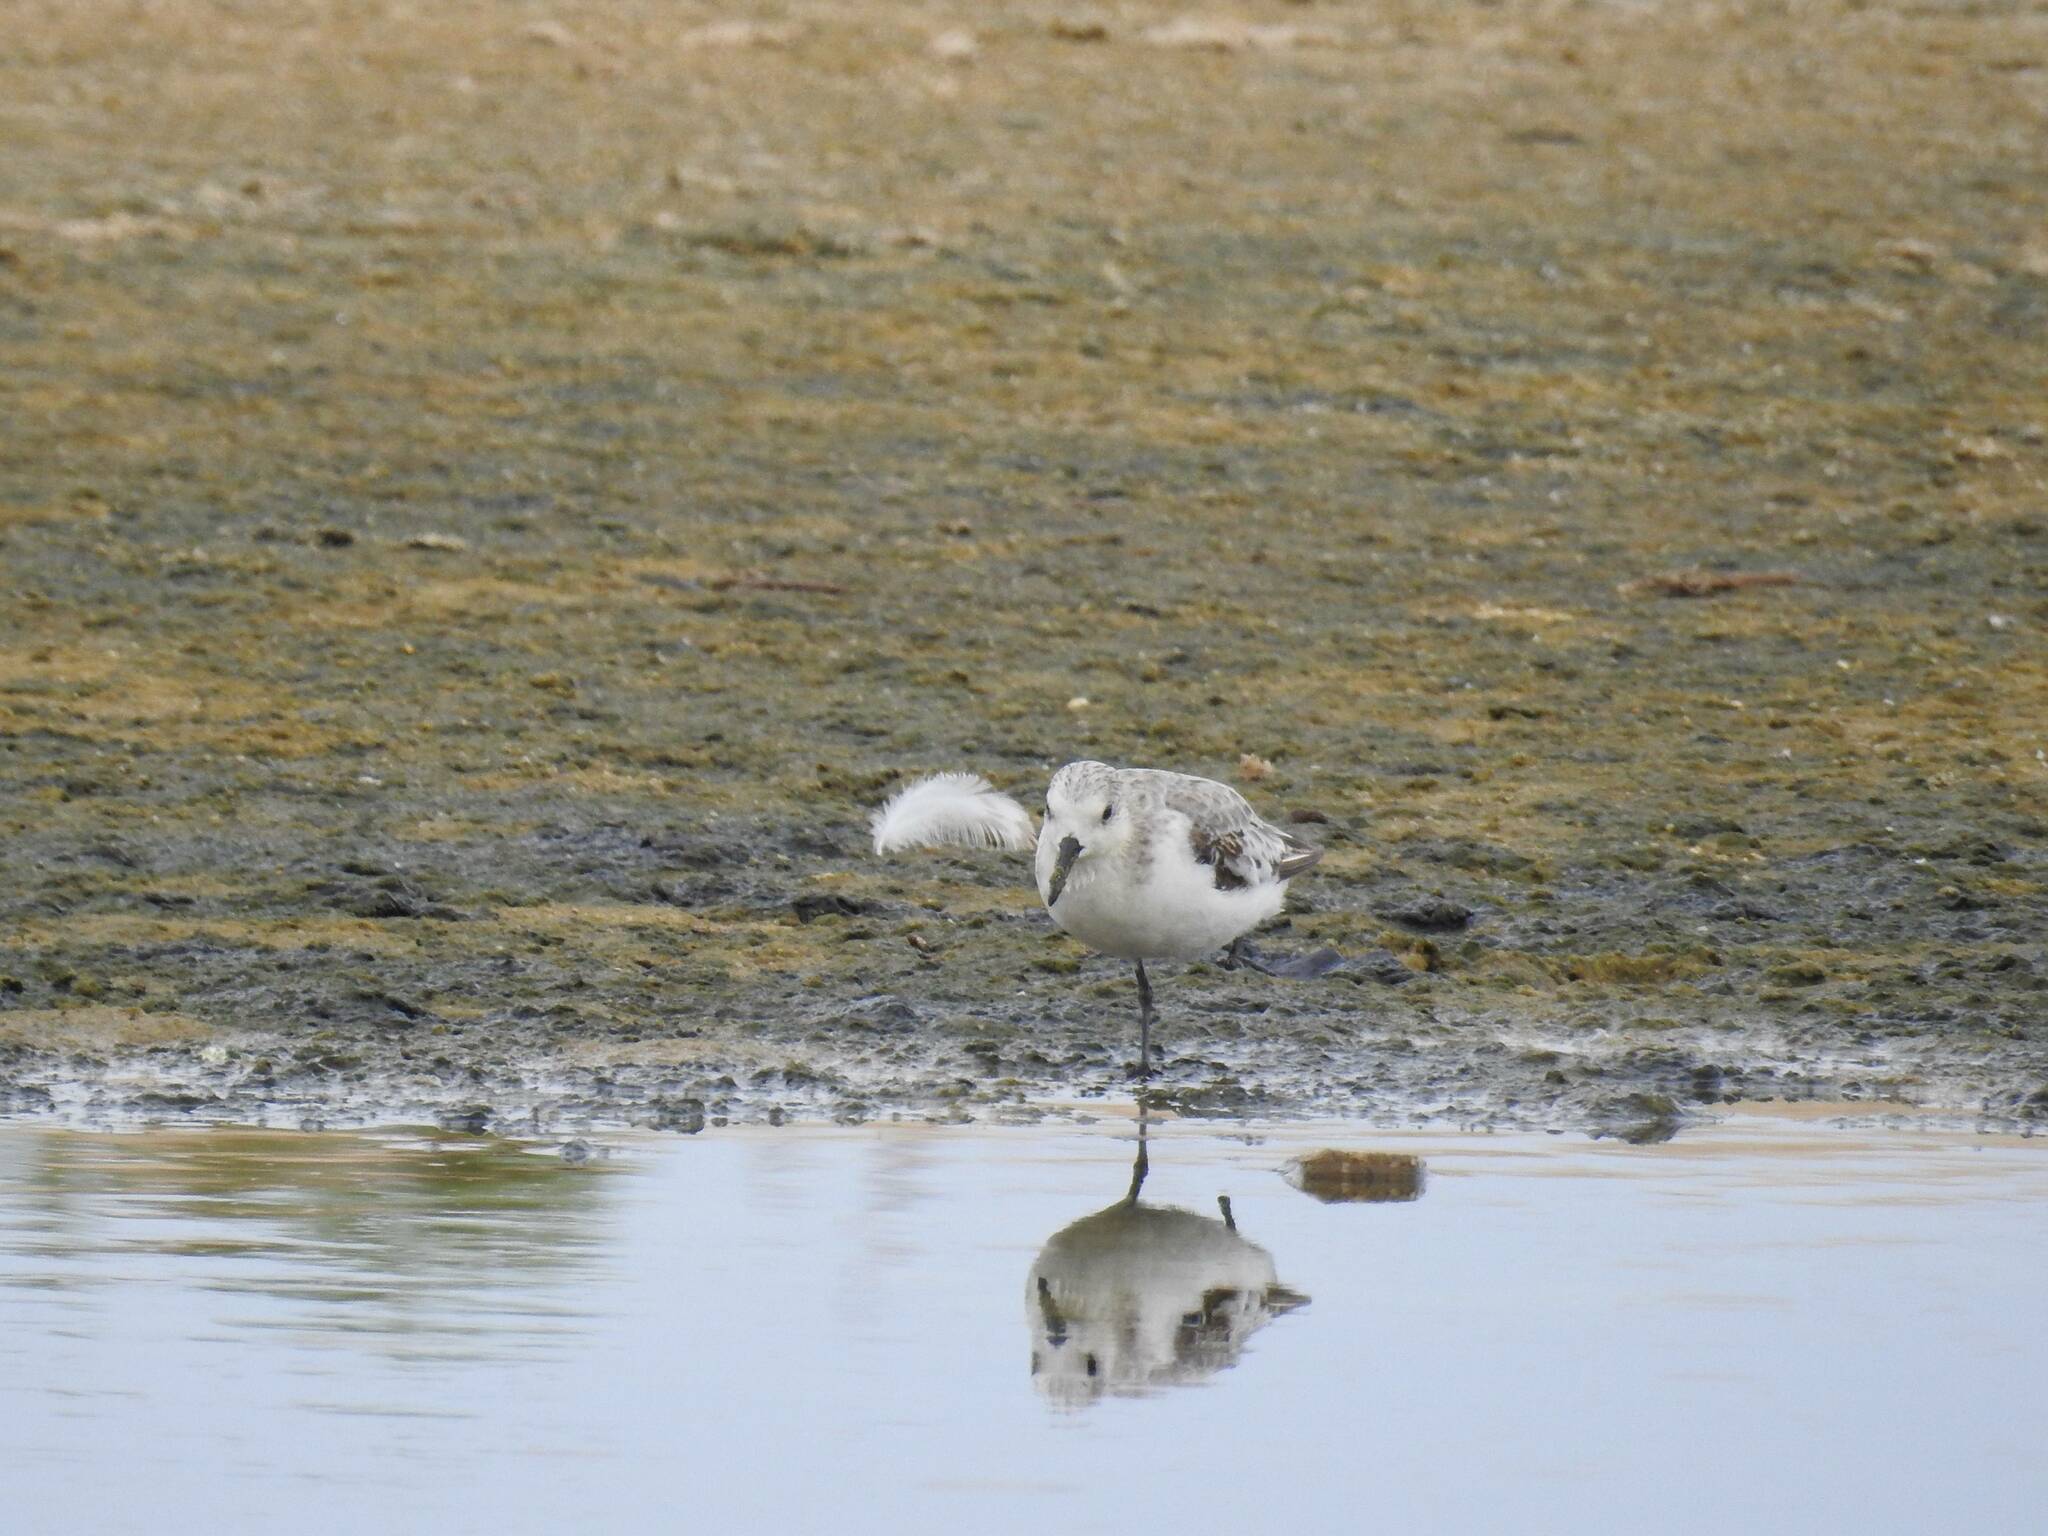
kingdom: Animalia
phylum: Chordata
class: Aves
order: Charadriiformes
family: Scolopacidae
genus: Calidris
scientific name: Calidris alba
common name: Sanderling
